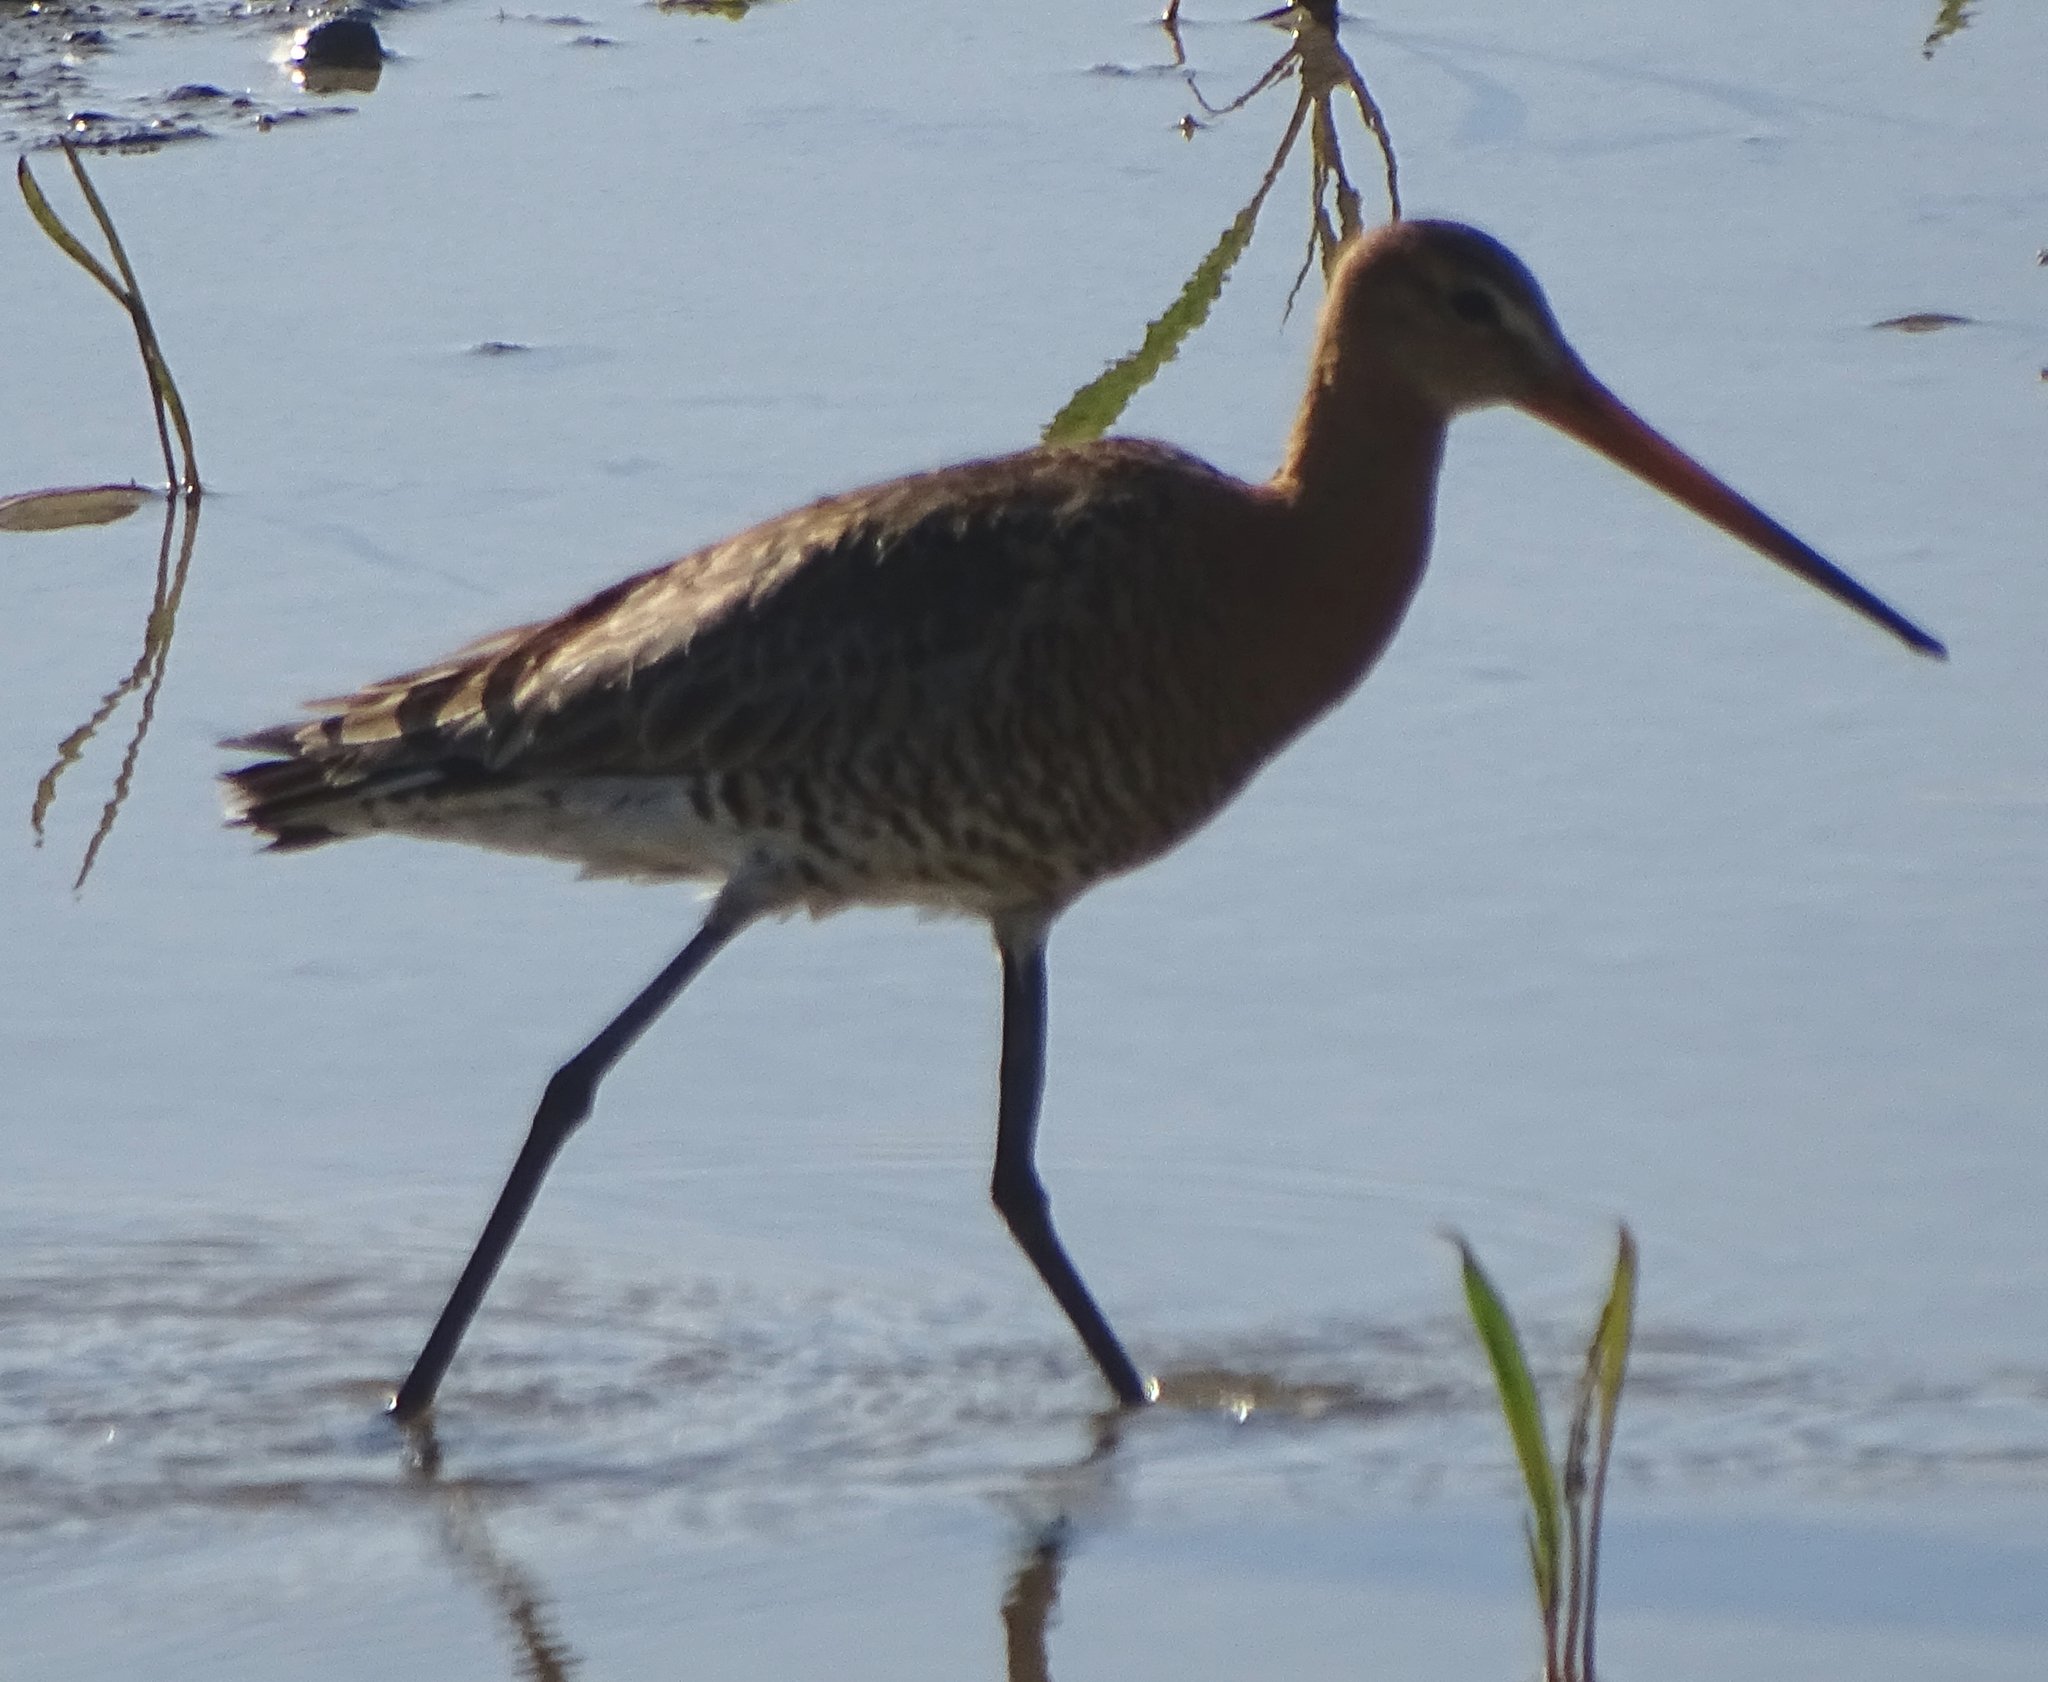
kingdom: Animalia
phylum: Chordata
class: Aves
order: Charadriiformes
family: Scolopacidae
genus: Limosa
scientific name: Limosa limosa
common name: Black-tailed godwit
